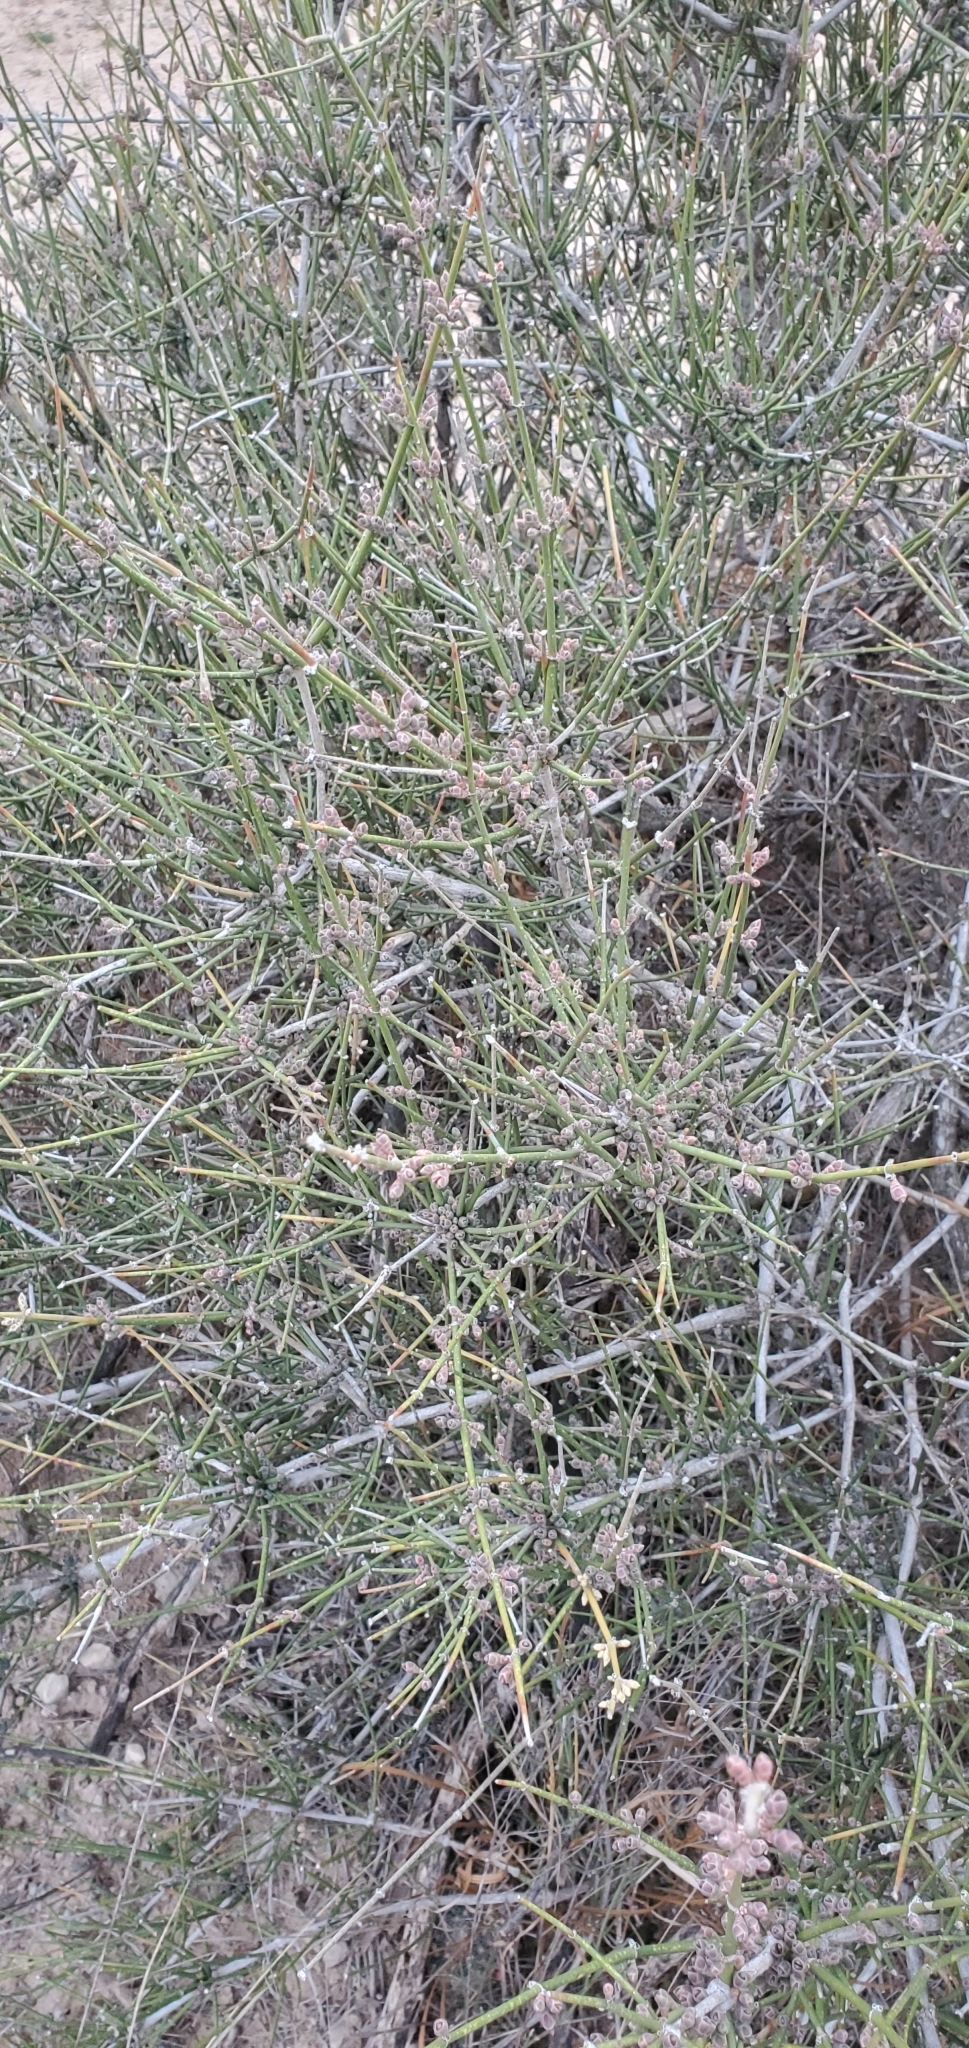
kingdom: Plantae
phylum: Tracheophyta
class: Gnetopsida
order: Ephedrales
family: Ephedraceae
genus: Ephedra
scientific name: Ephedra antisyphilitica
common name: Clipweed
